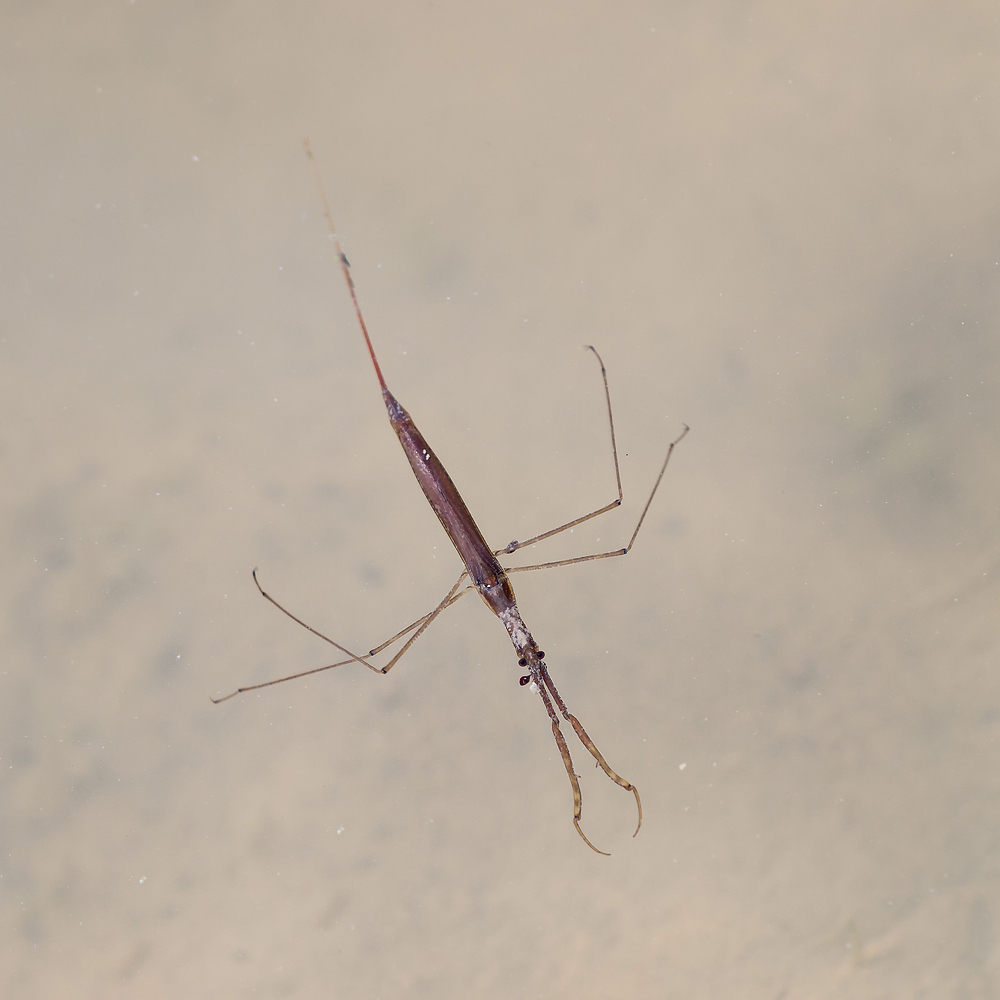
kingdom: Animalia
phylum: Arthropoda
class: Insecta
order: Hemiptera
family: Nepidae
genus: Ranatra
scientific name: Ranatra linearis
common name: Water stick insect
